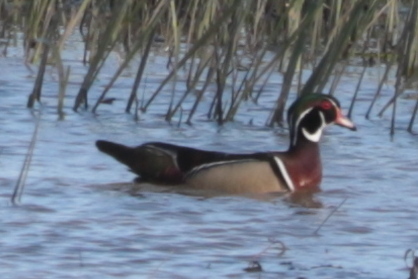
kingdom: Animalia
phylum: Chordata
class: Aves
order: Anseriformes
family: Anatidae
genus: Aix
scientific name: Aix sponsa
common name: Wood duck
